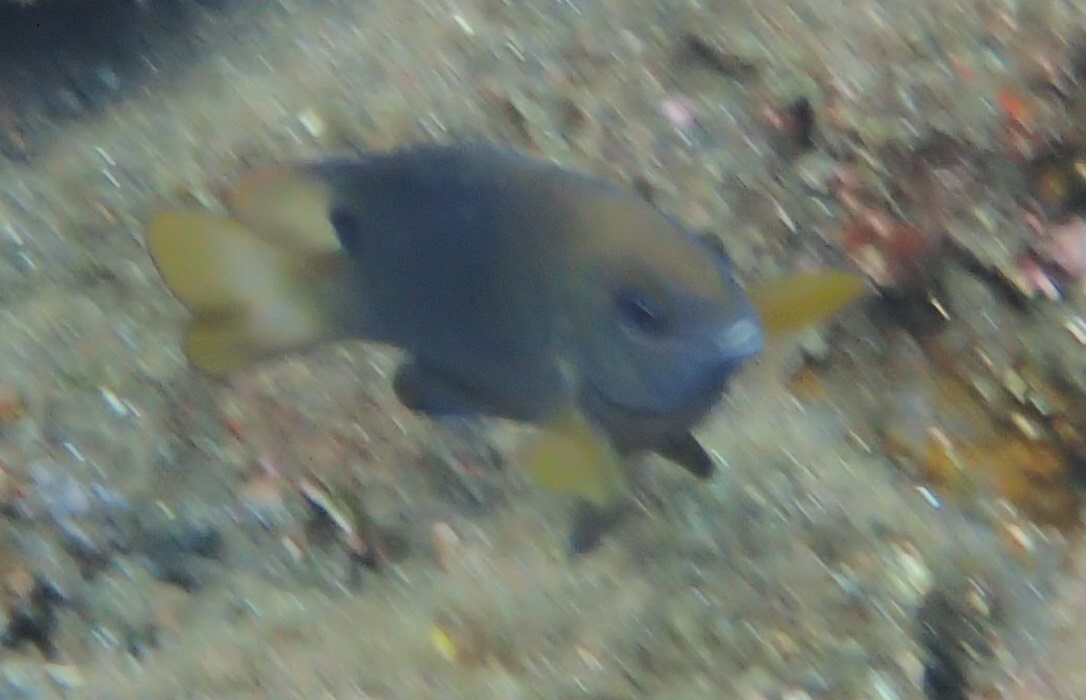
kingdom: Animalia
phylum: Chordata
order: Perciformes
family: Pomacentridae
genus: Chrysiptera
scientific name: Chrysiptera unimaculata
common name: Onespot demoiselle
